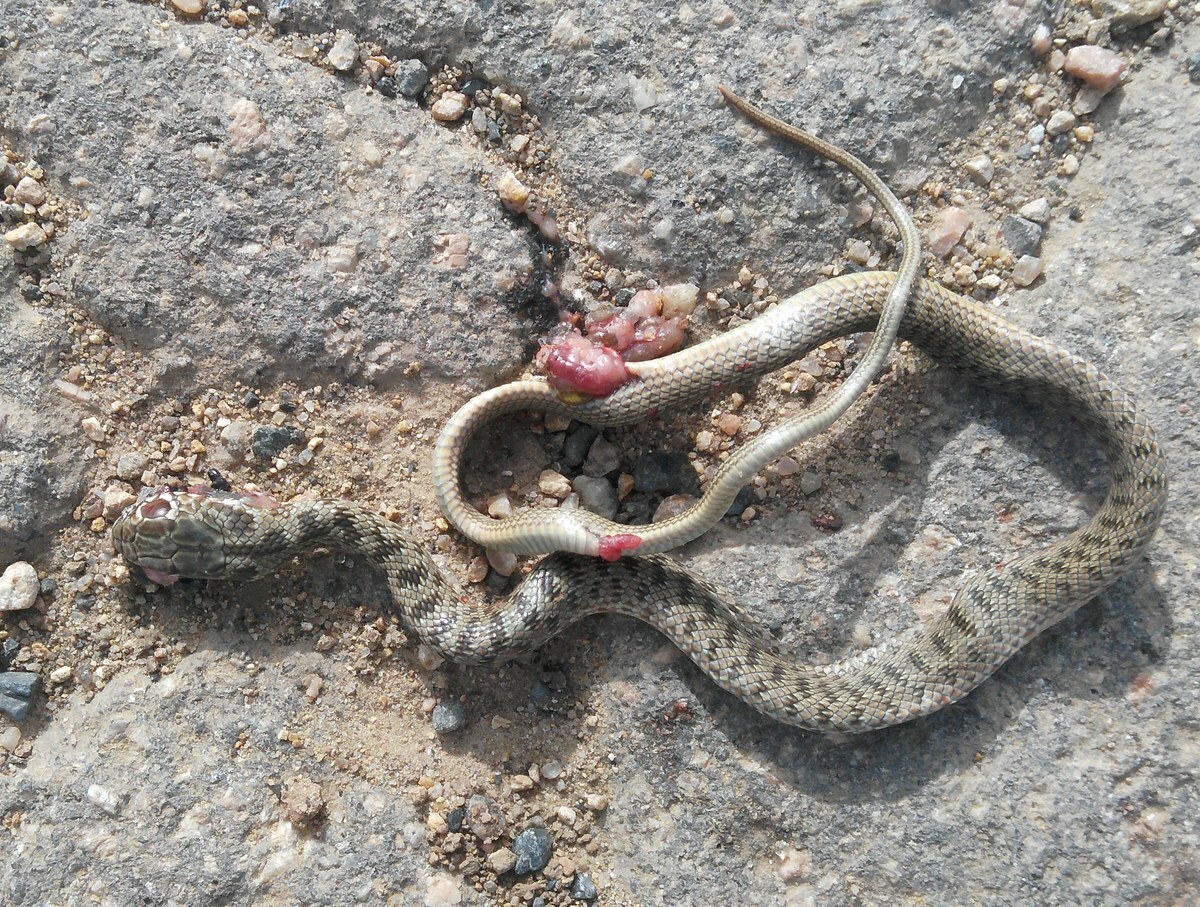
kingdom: Animalia
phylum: Chordata
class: Squamata
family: Colubridae
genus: Dolichophis
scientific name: Dolichophis caspius
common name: Large whip snake
